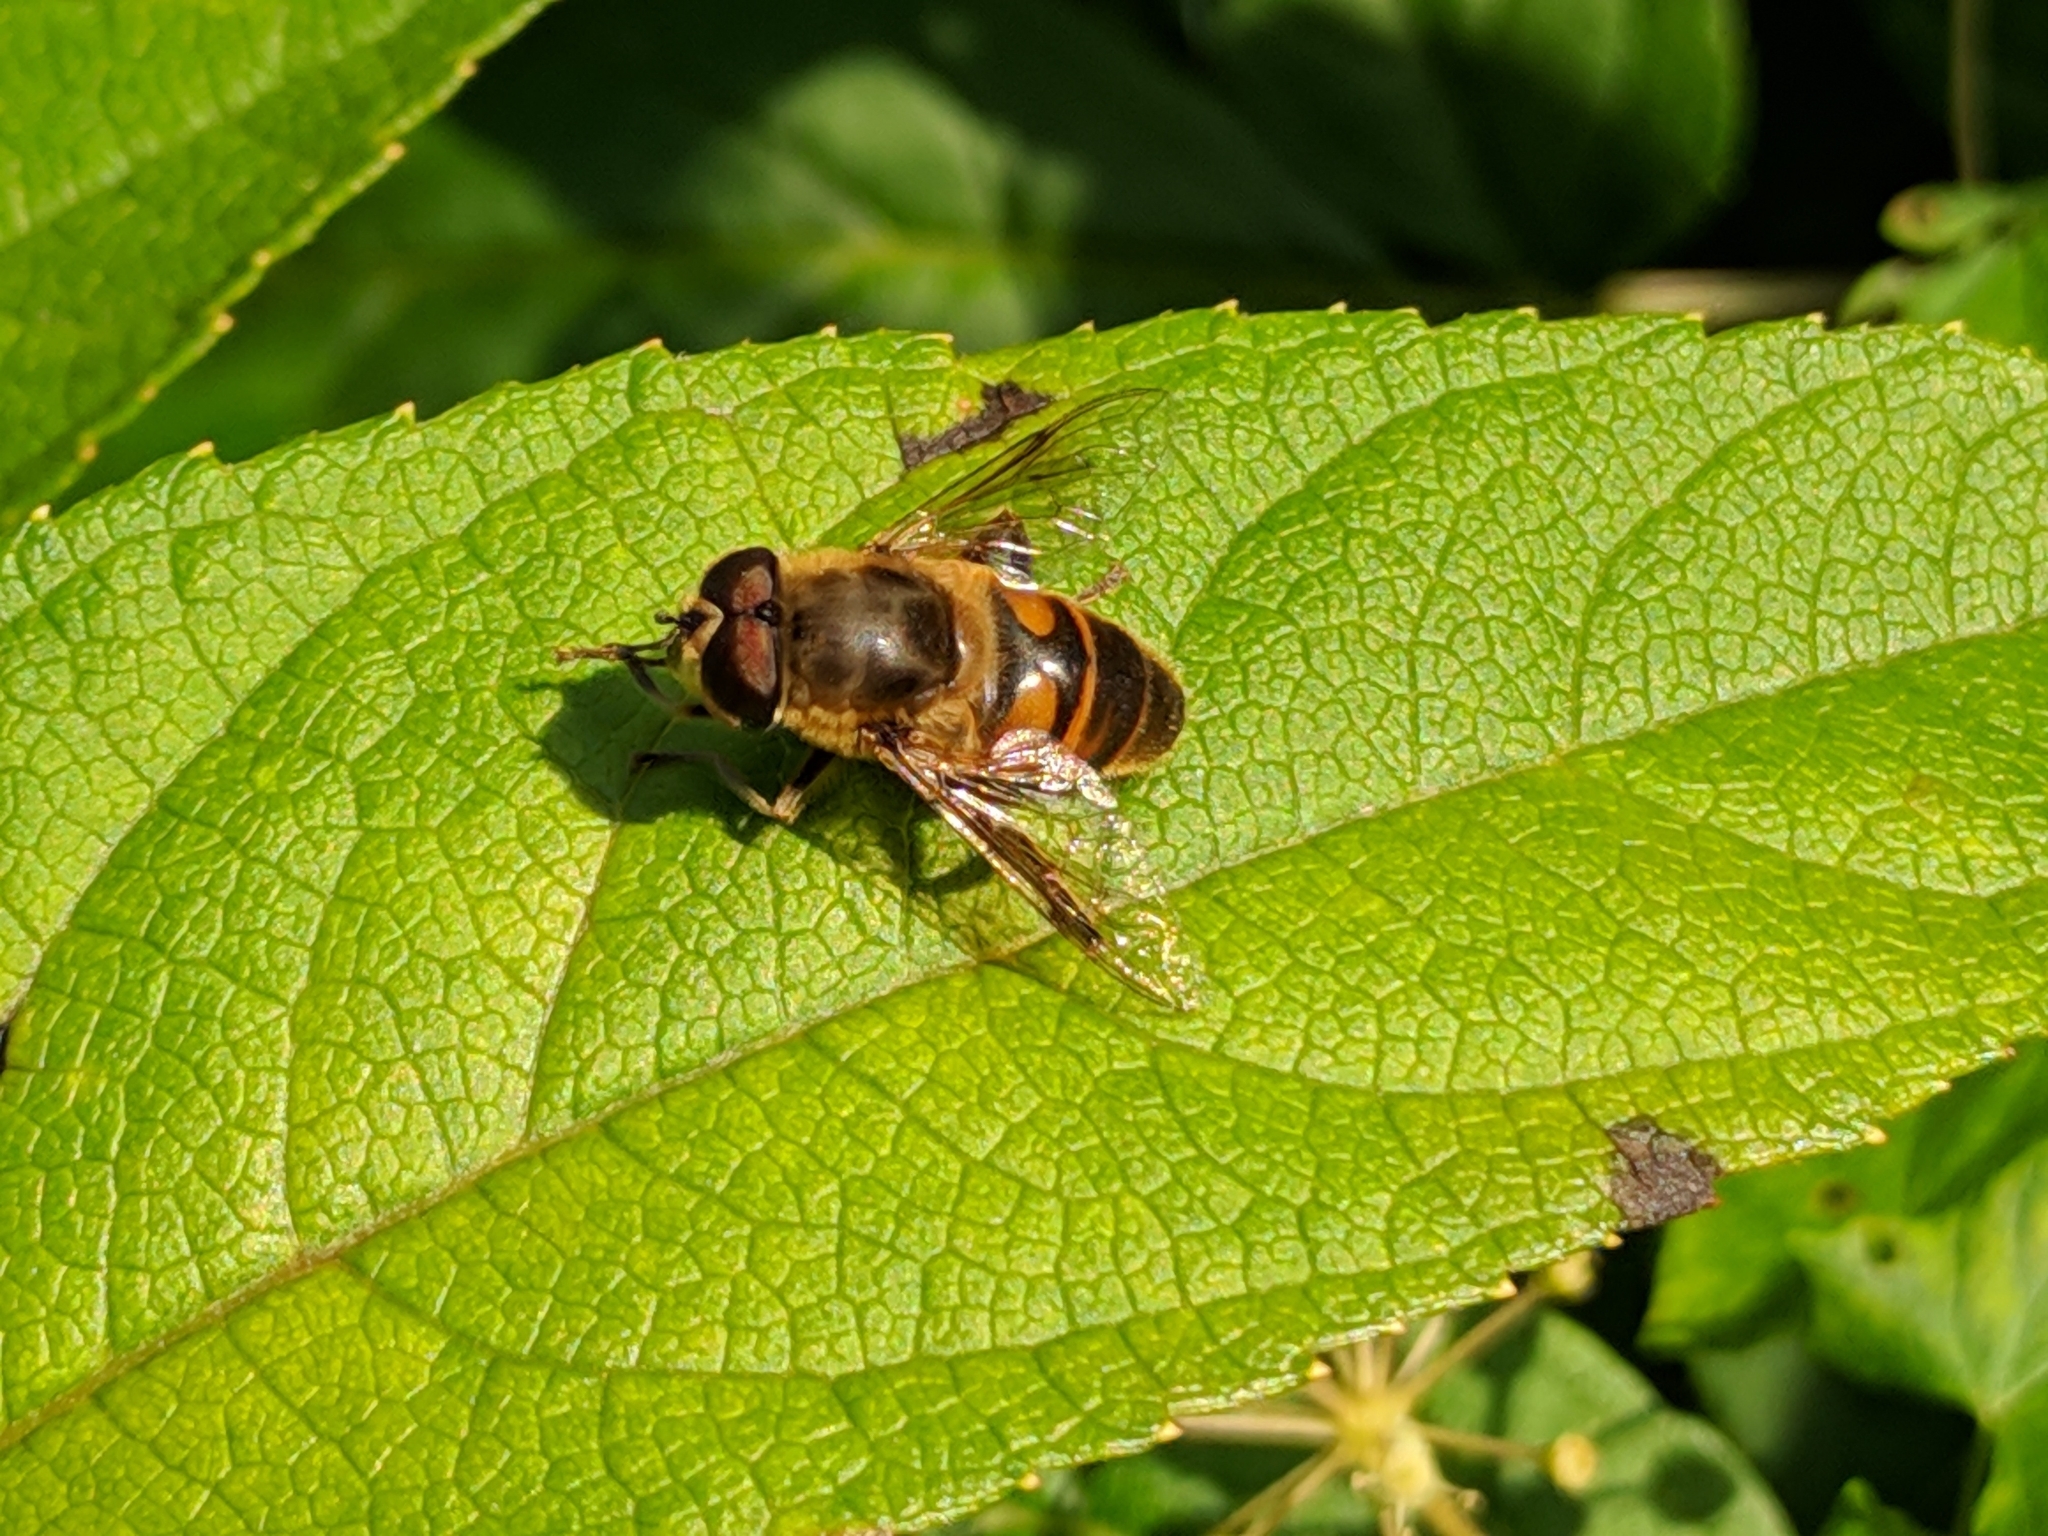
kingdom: Animalia
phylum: Arthropoda
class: Insecta
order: Diptera
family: Syrphidae
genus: Eristalis
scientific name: Eristalis tenax
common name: Drone fly
